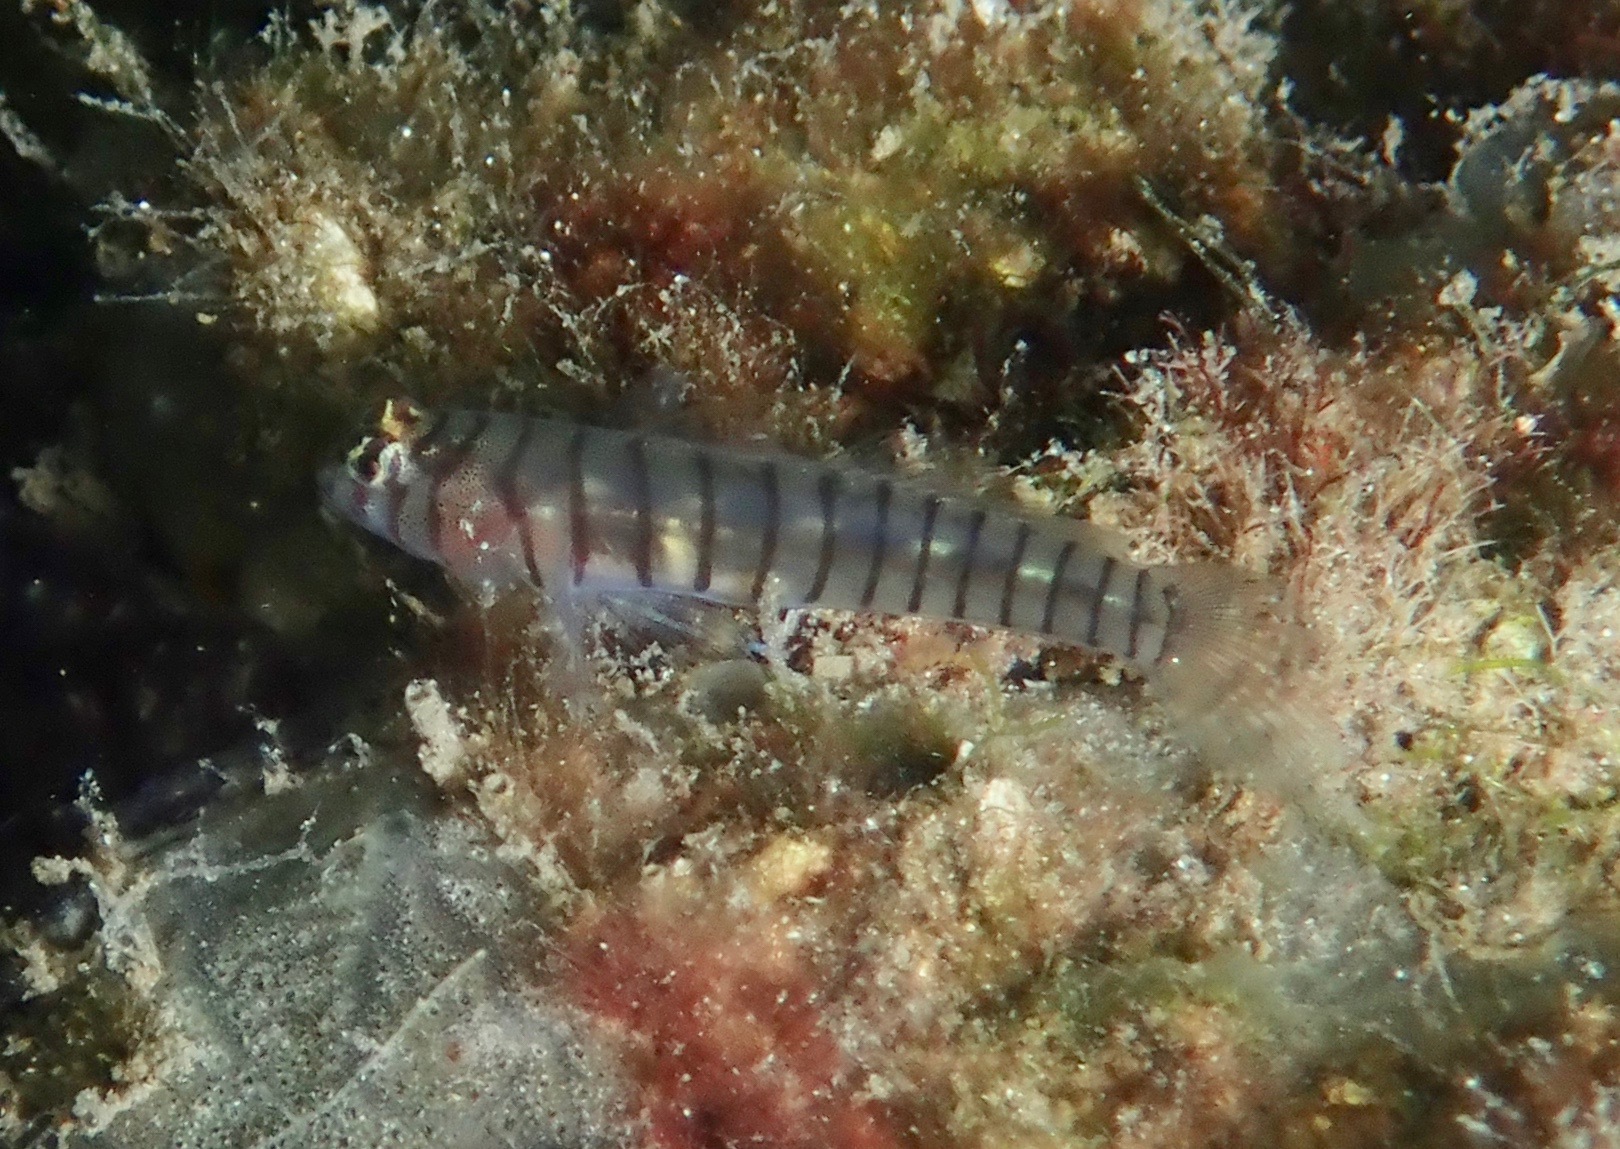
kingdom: Animalia
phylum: Chordata
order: Perciformes
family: Gobiidae
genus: Tigrigobius
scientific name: Tigrigobius macrodon
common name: Tiger goby
